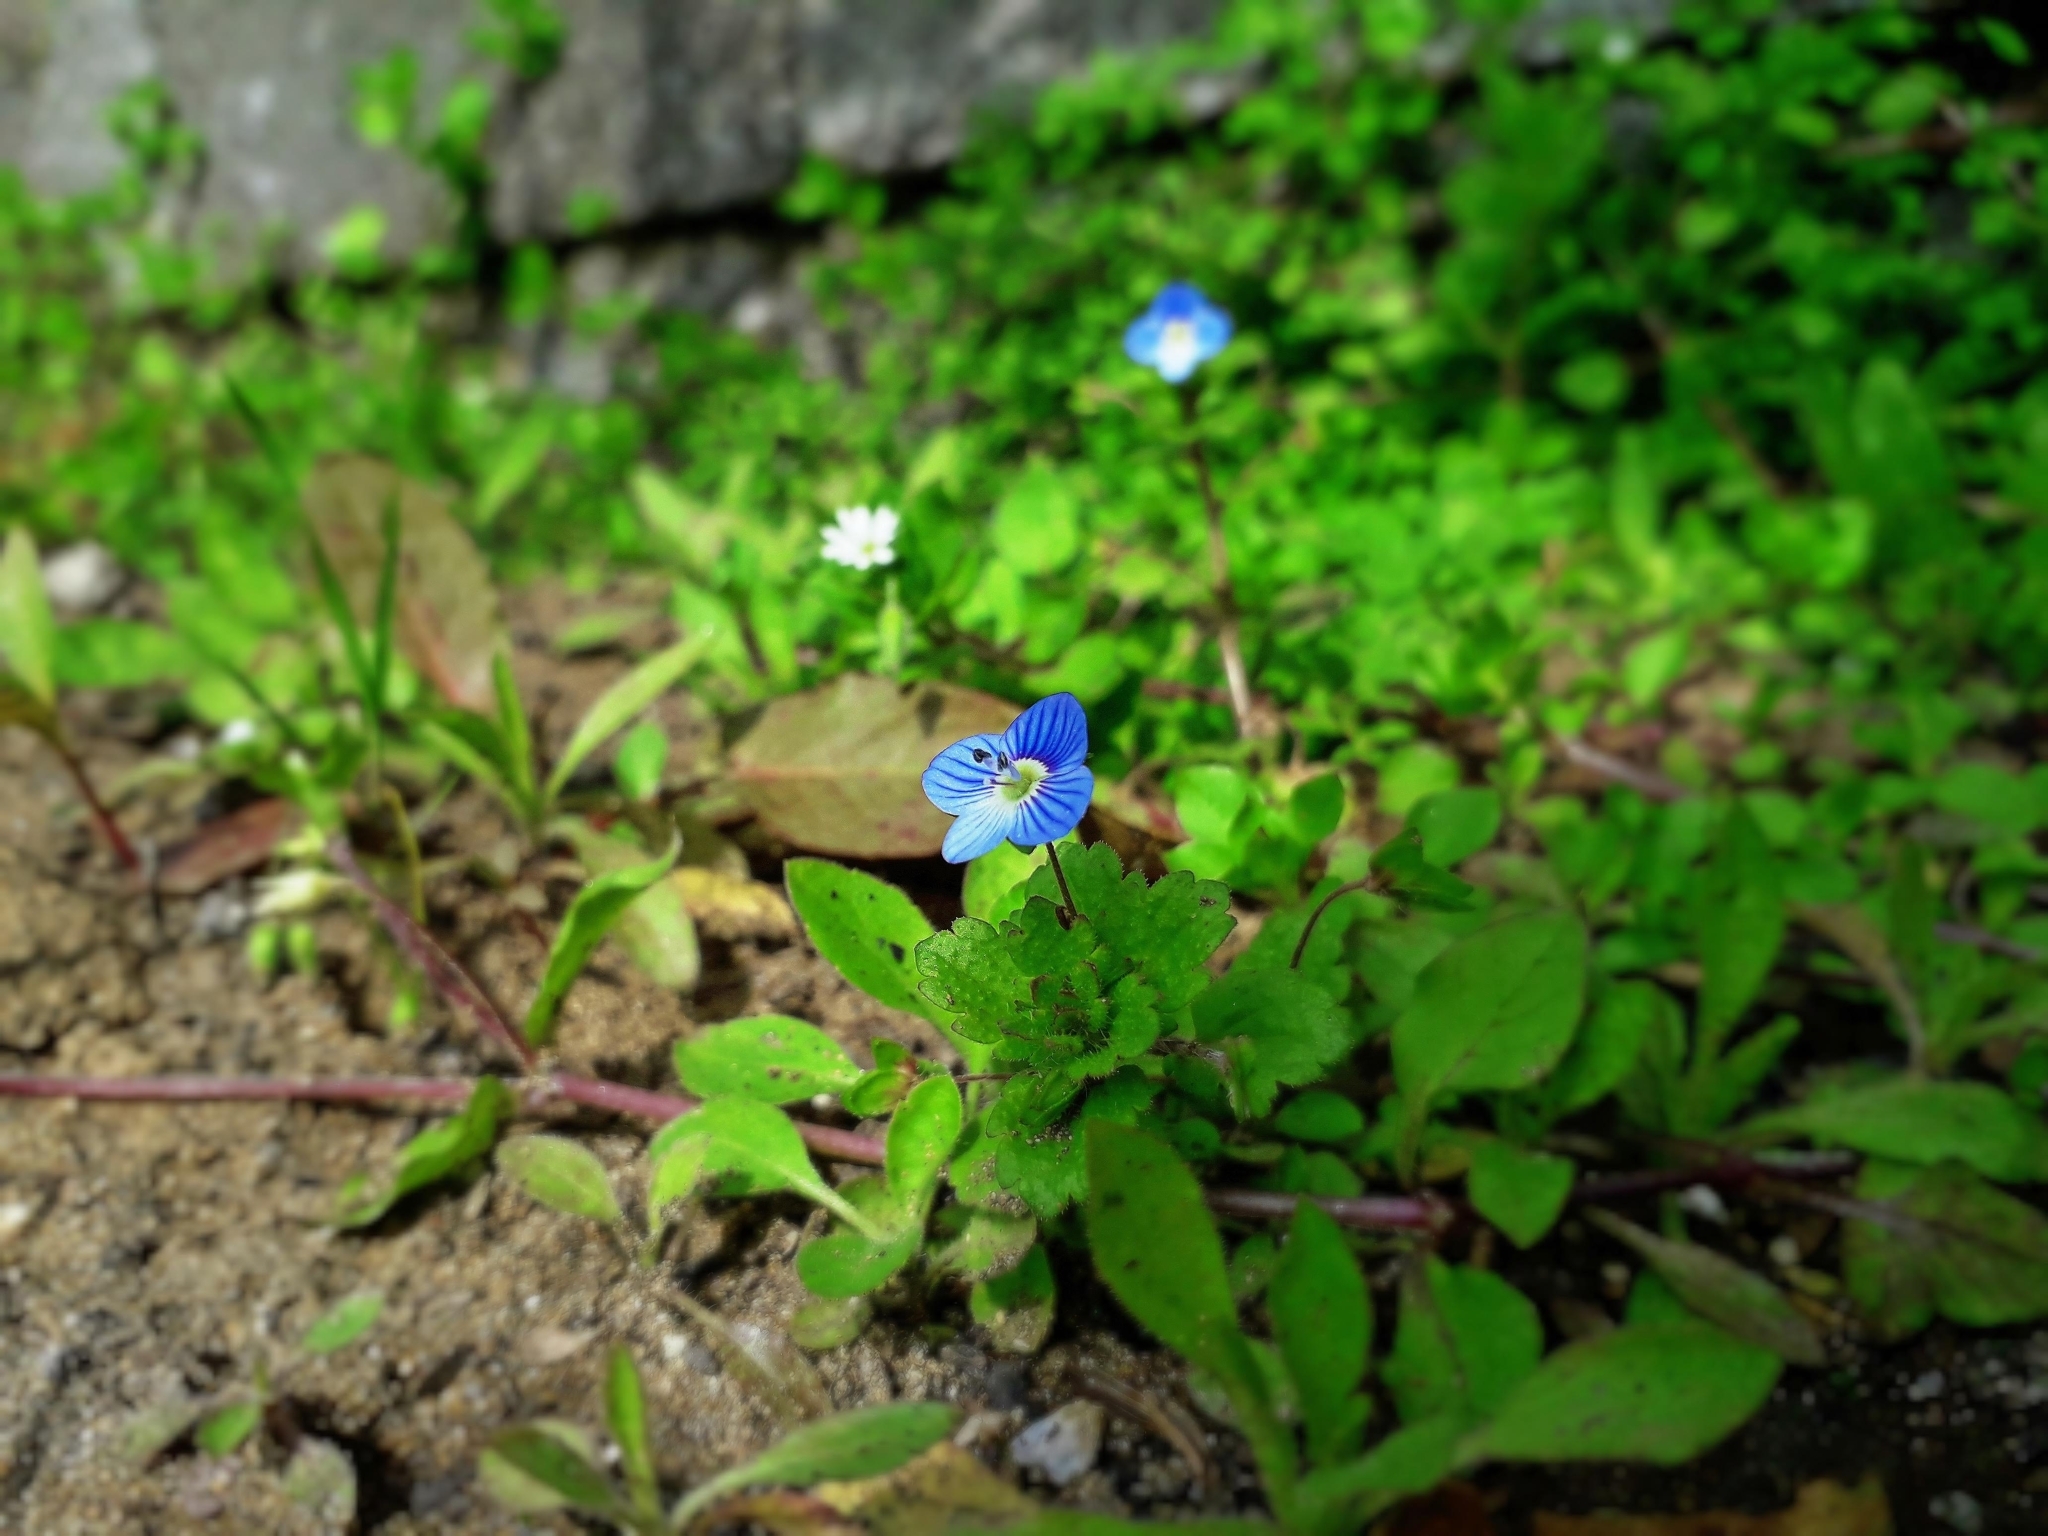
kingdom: Plantae
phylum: Tracheophyta
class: Magnoliopsida
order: Lamiales
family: Plantaginaceae
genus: Veronica
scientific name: Veronica persica
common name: Common field-speedwell
